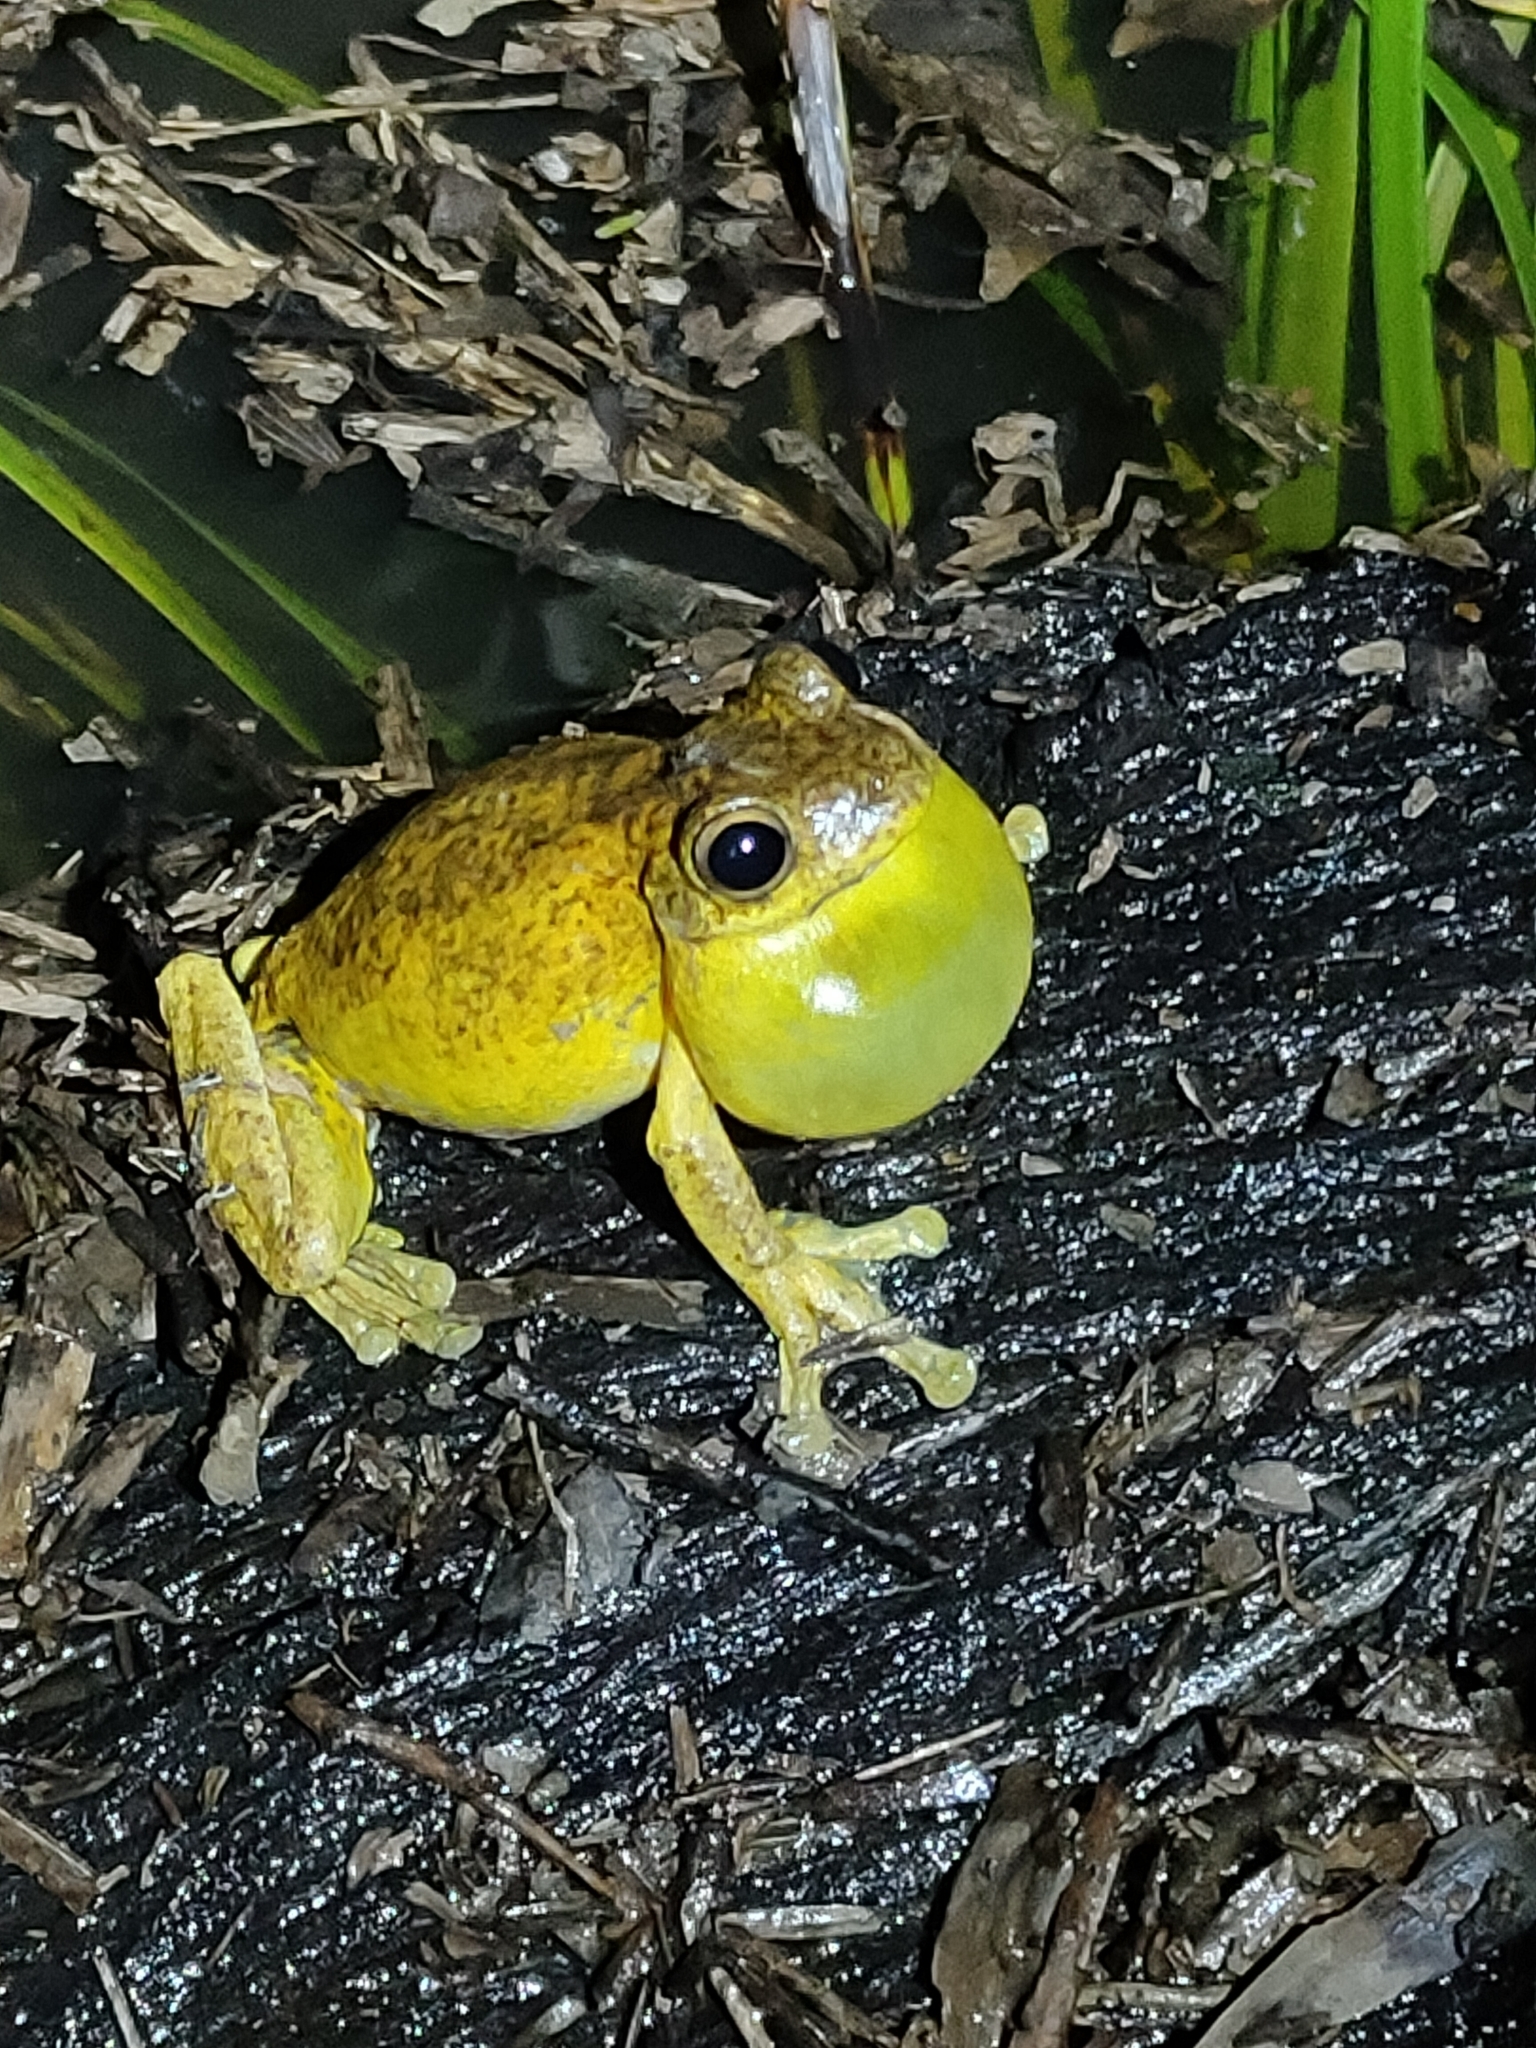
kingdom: Animalia
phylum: Chordata
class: Amphibia
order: Anura
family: Pelodryadidae
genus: Litoria
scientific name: Litoria tyleri
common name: Laughing tree frog
